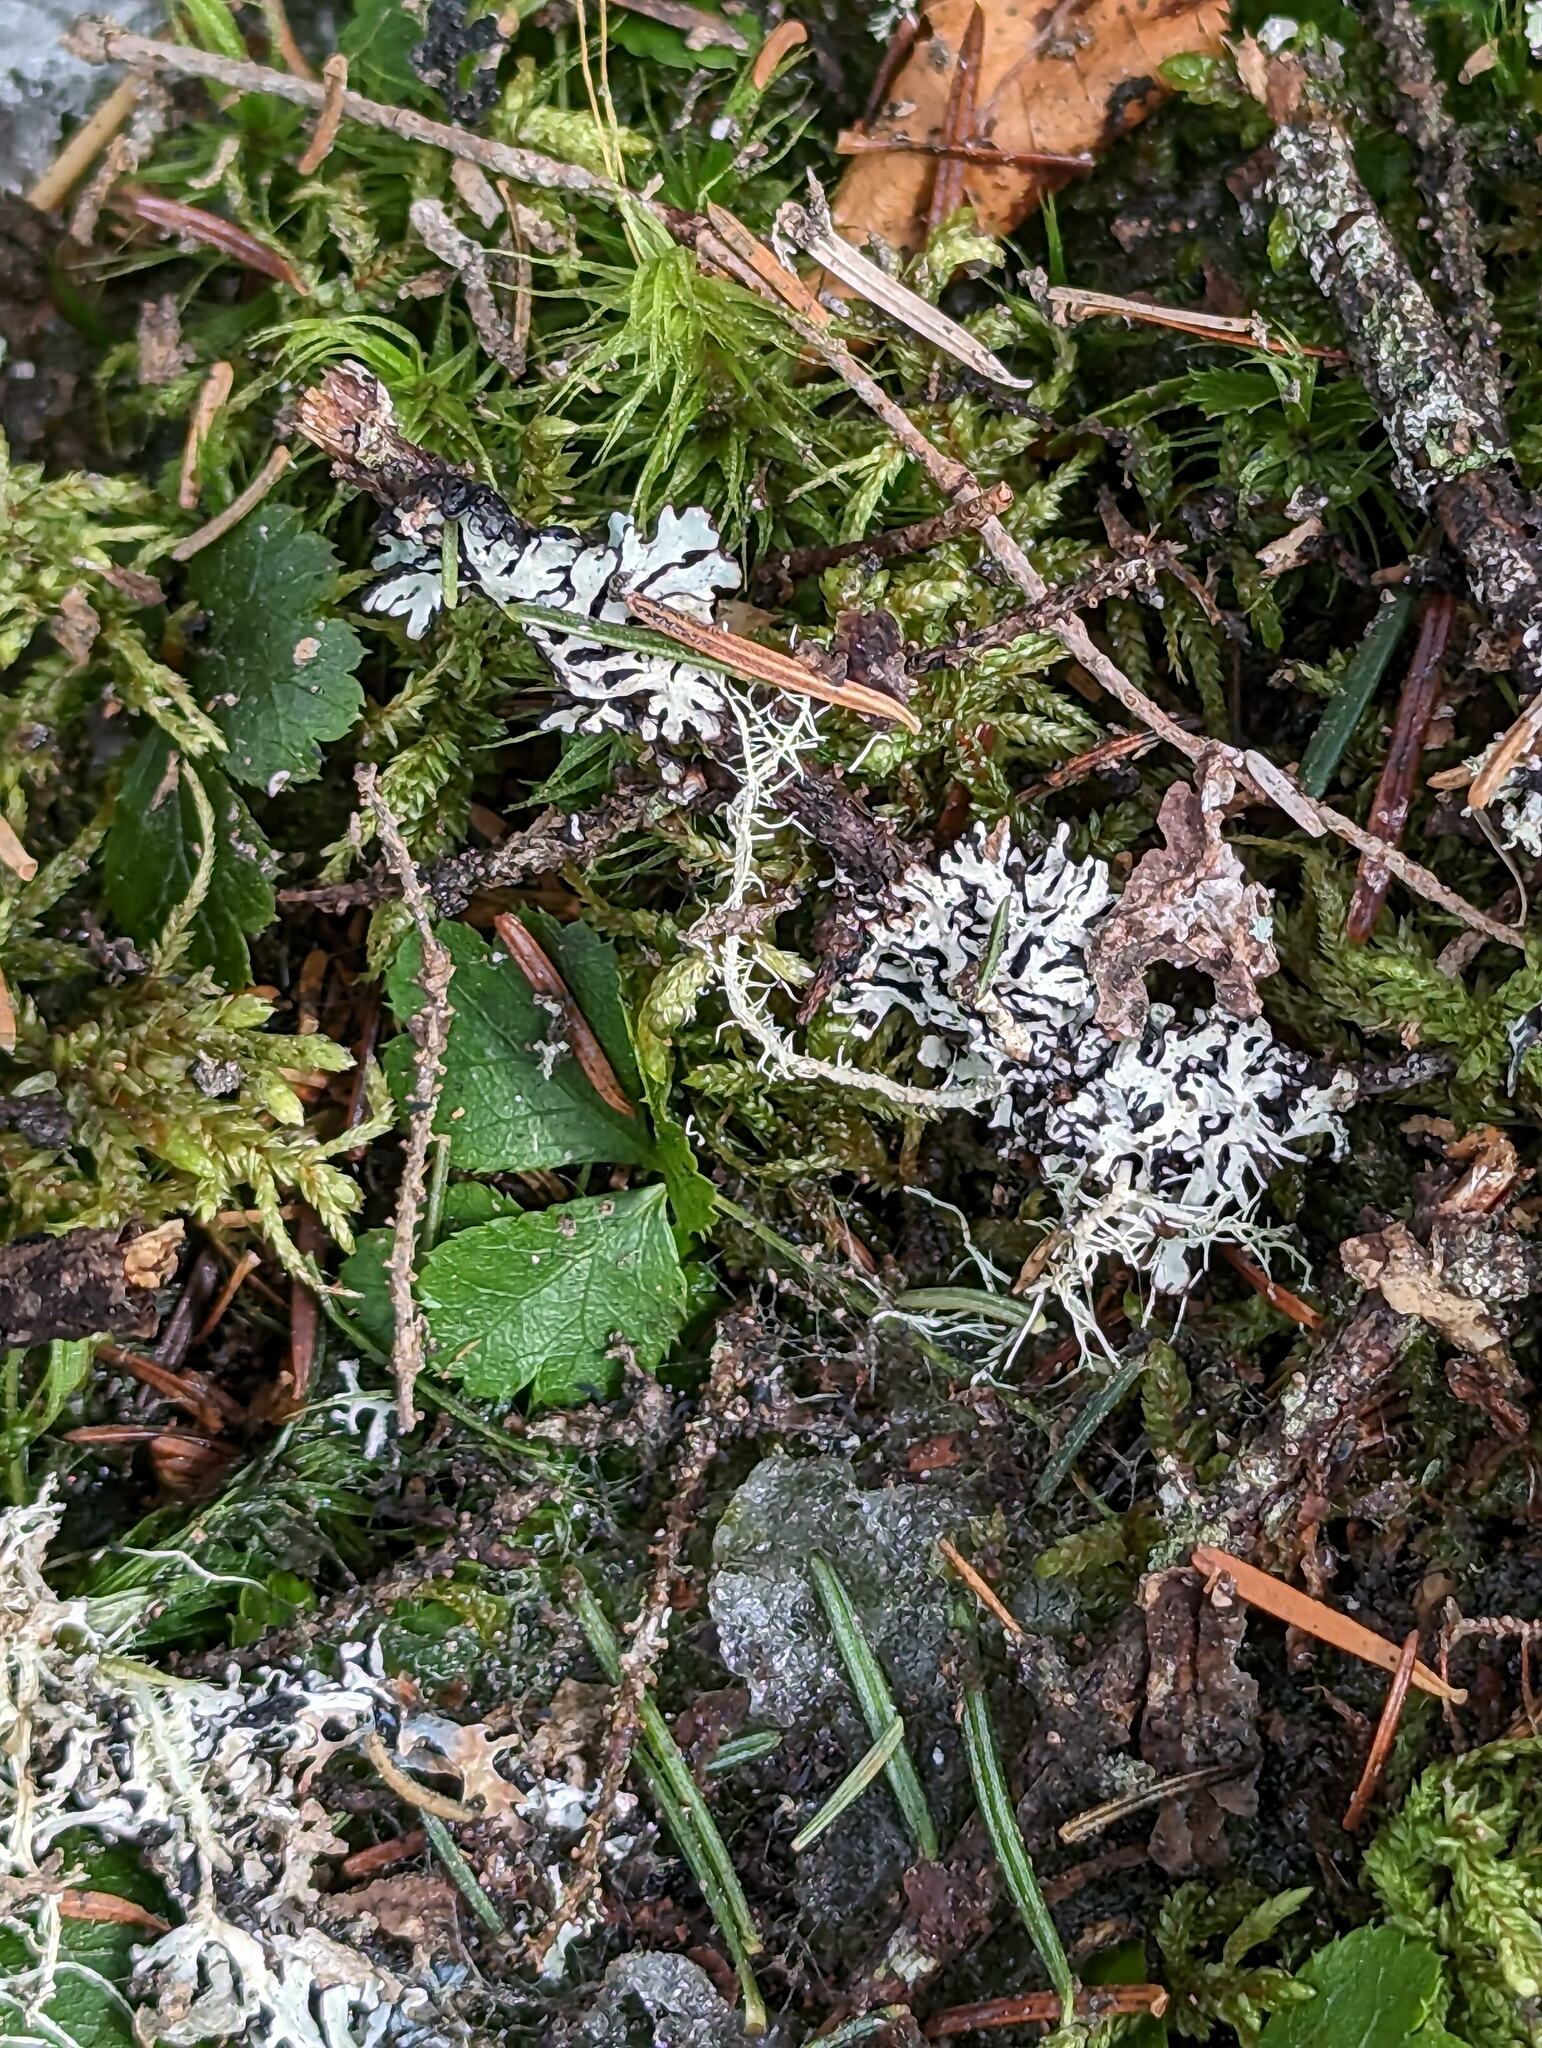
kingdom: Plantae
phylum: Tracheophyta
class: Magnoliopsida
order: Ranunculales
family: Ranunculaceae
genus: Coptis
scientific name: Coptis trifolia
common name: Canker-root
